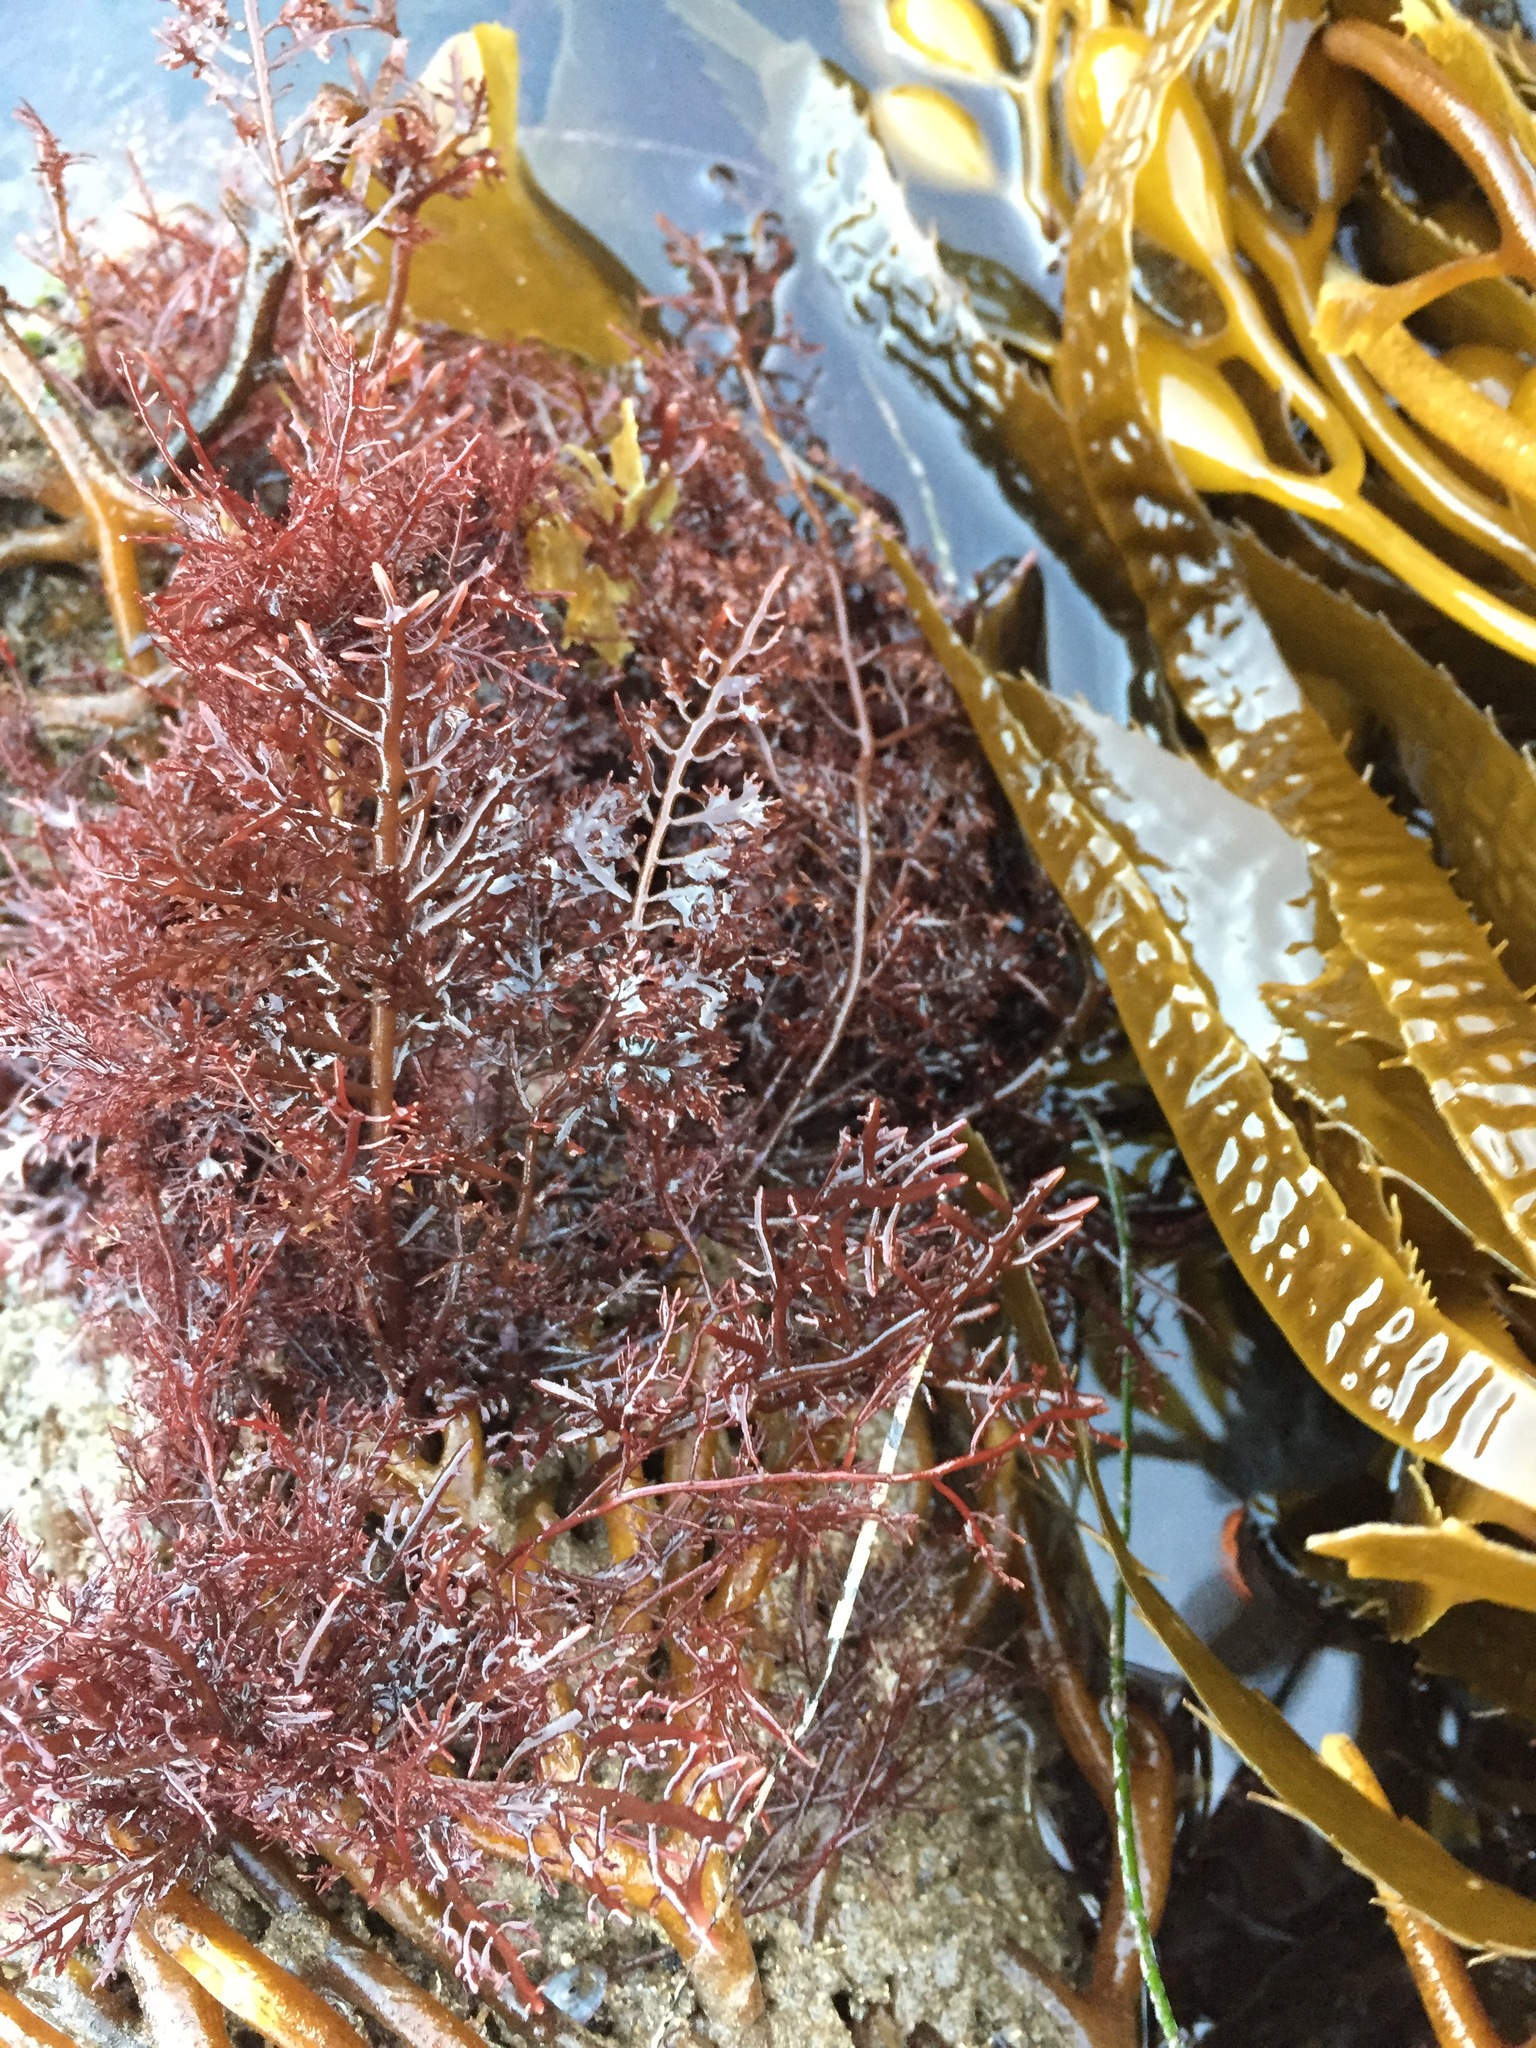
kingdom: Plantae
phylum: Rhodophyta
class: Florideophyceae
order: Gelidiales
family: Gelidiaceae
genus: Gelidium
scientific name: Gelidium robustum
